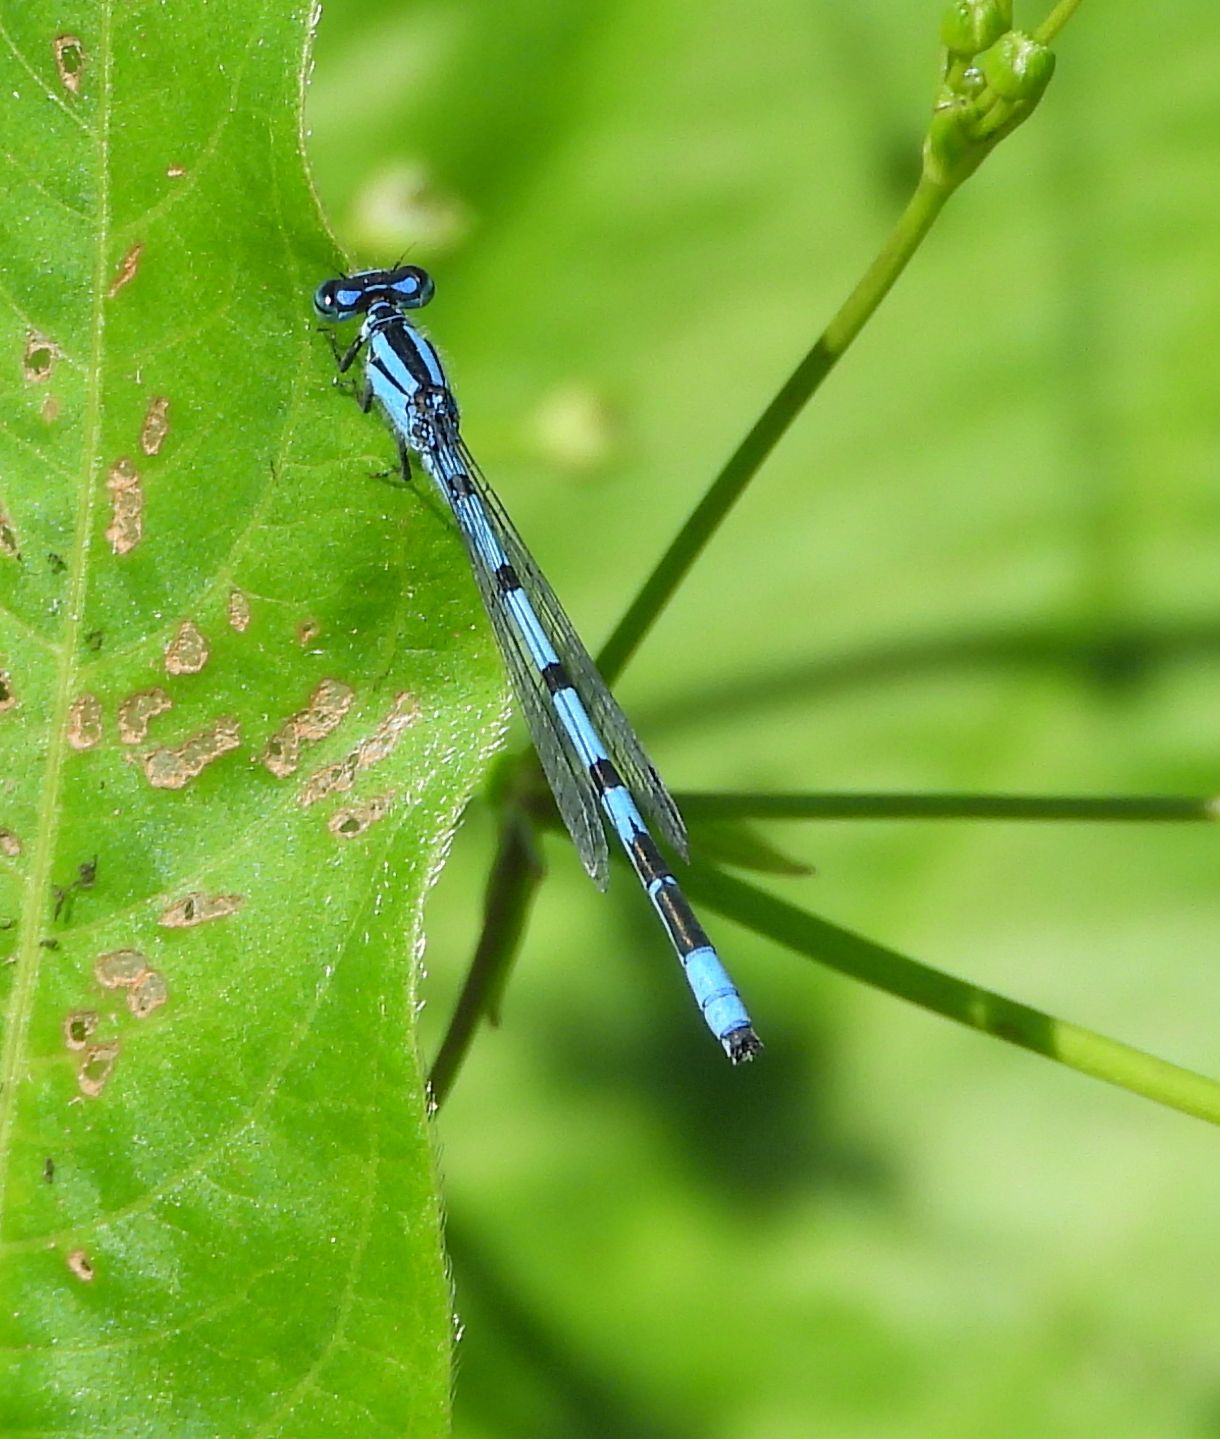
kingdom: Animalia
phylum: Arthropoda
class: Insecta
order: Odonata
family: Coenagrionidae
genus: Enallagma
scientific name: Enallagma ebrium
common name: Marsh bluet
